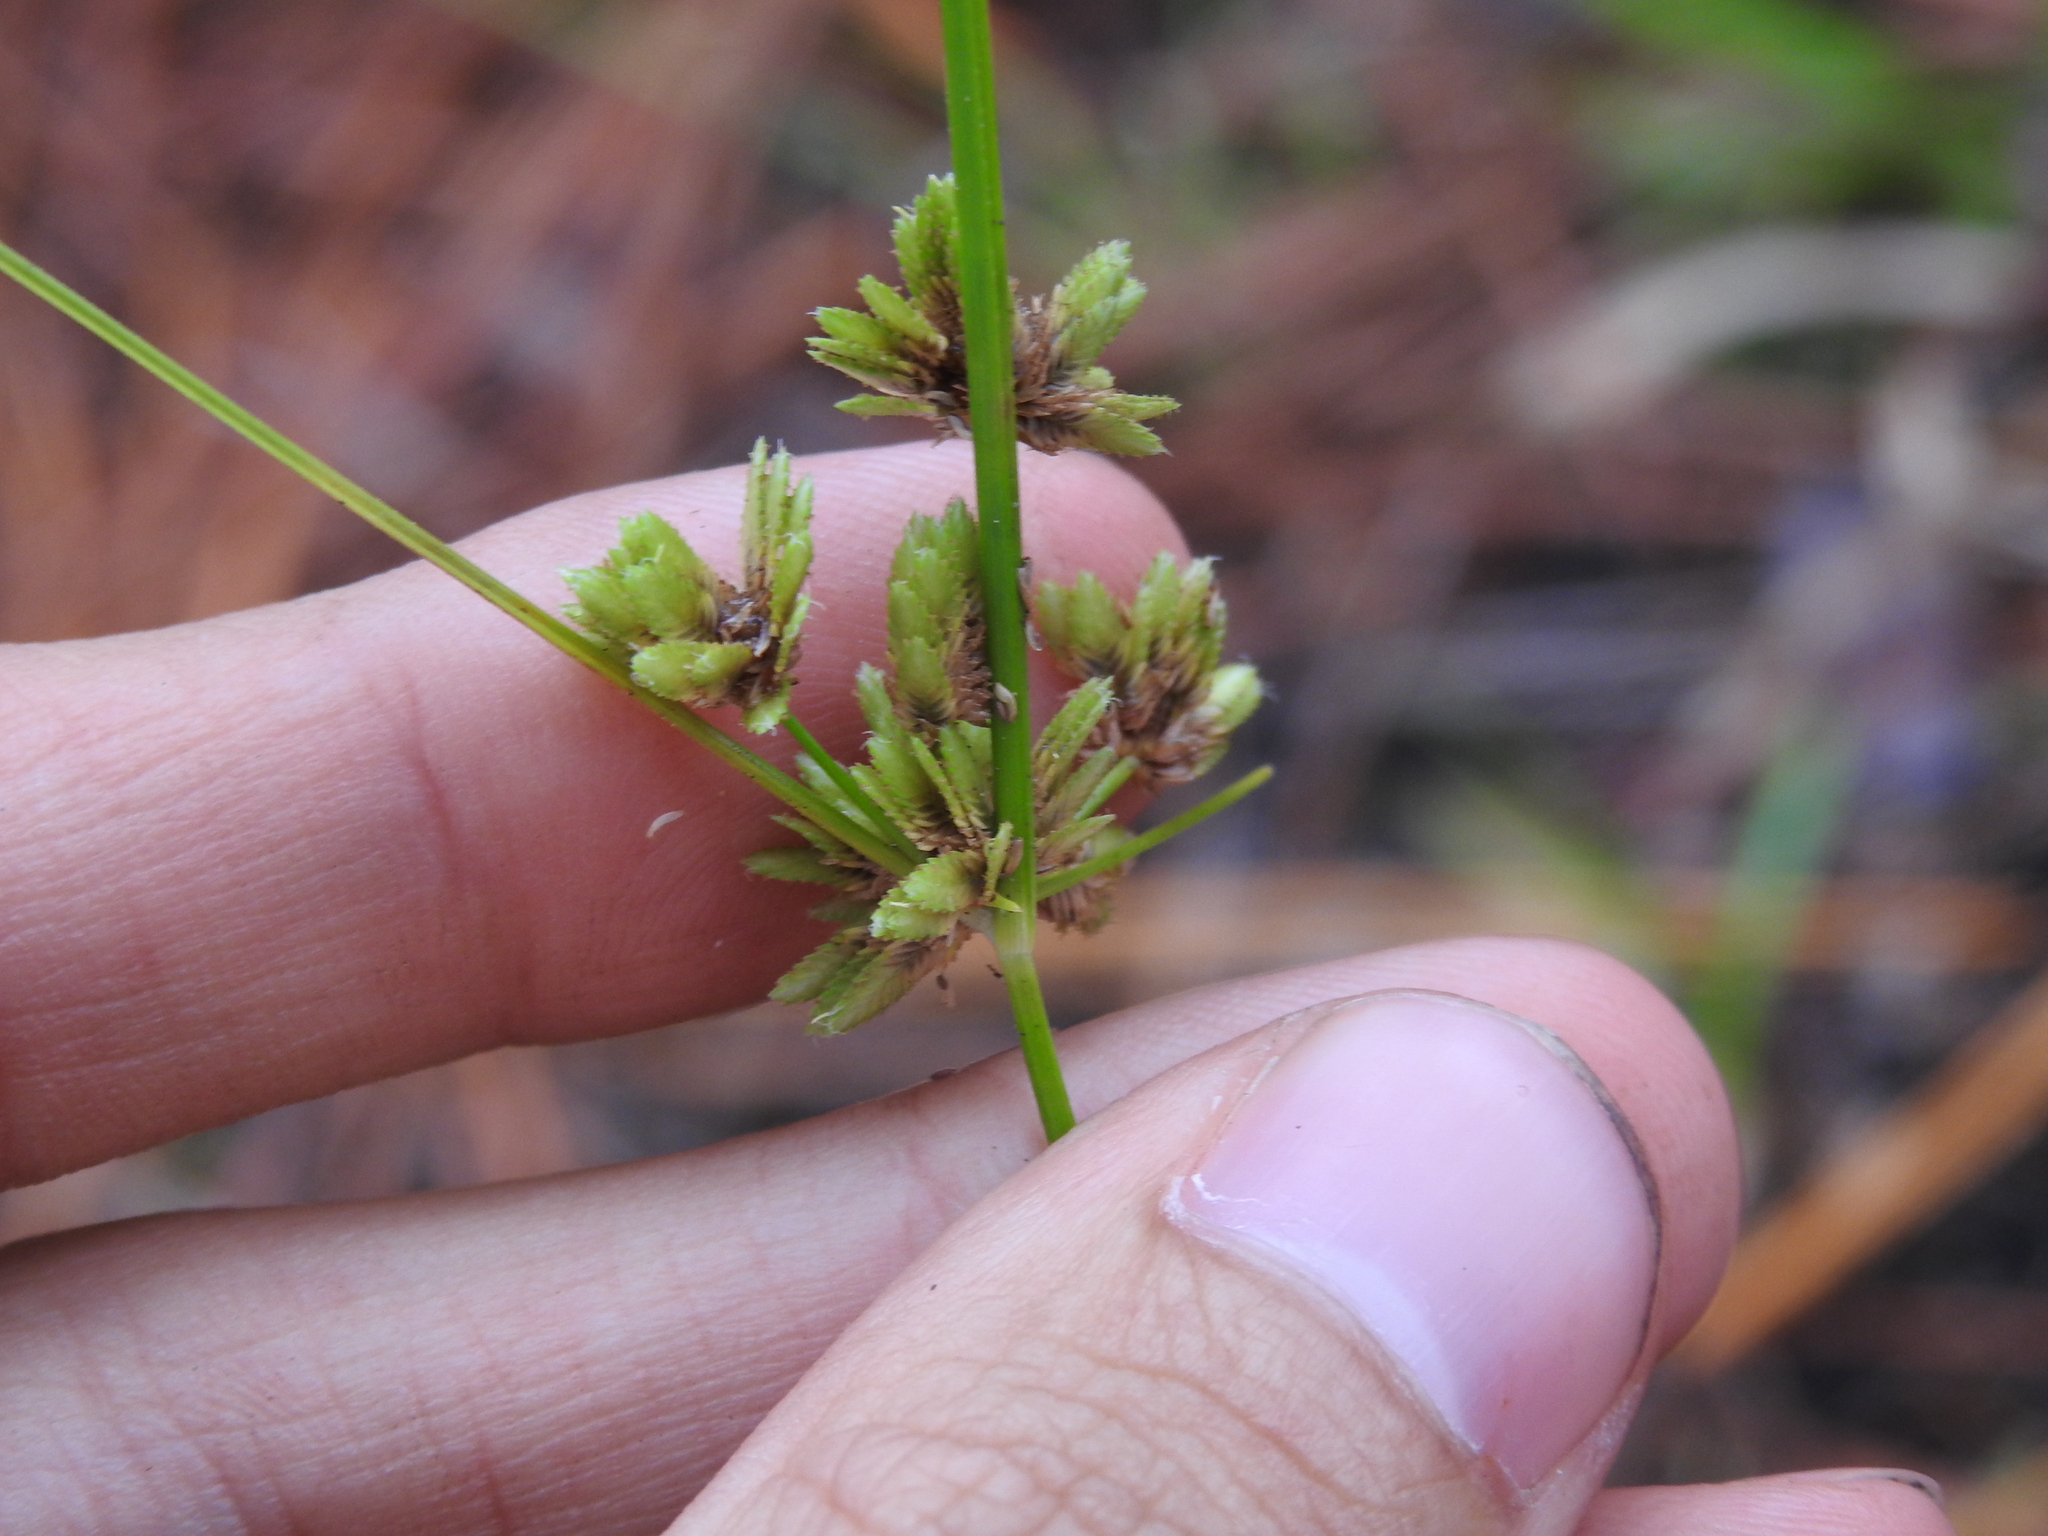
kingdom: Plantae
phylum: Tracheophyta
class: Liliopsida
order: Poales
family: Cyperaceae
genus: Cyperus
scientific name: Cyperus surinamensis
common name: Tropical flat sedge
